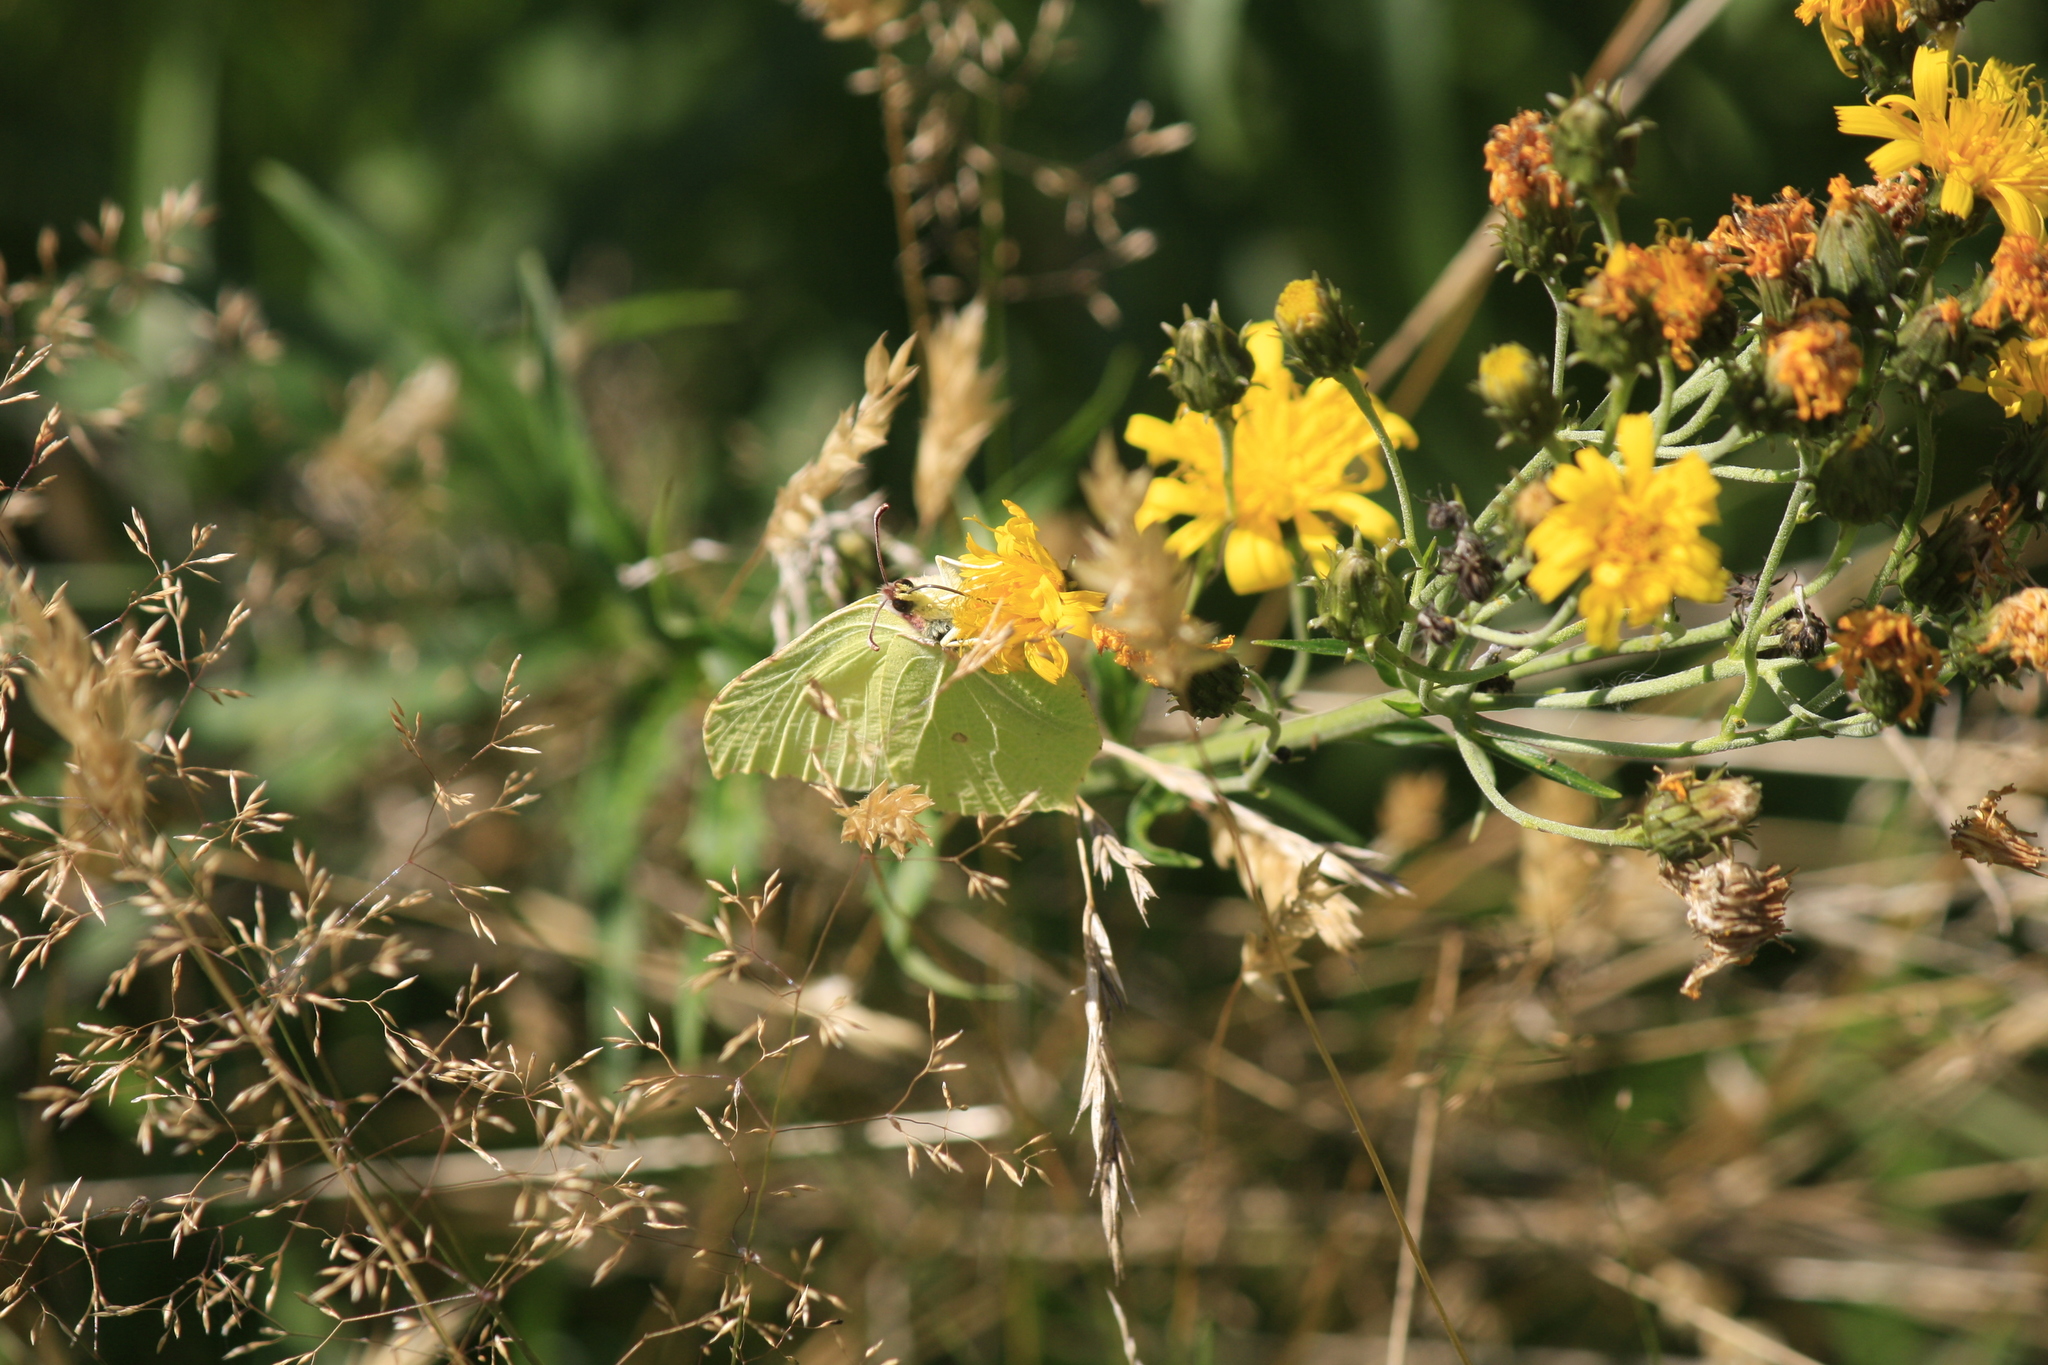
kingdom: Animalia
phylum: Arthropoda
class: Insecta
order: Lepidoptera
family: Pieridae
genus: Gonepteryx
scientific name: Gonepteryx rhamni
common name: Brimstone
